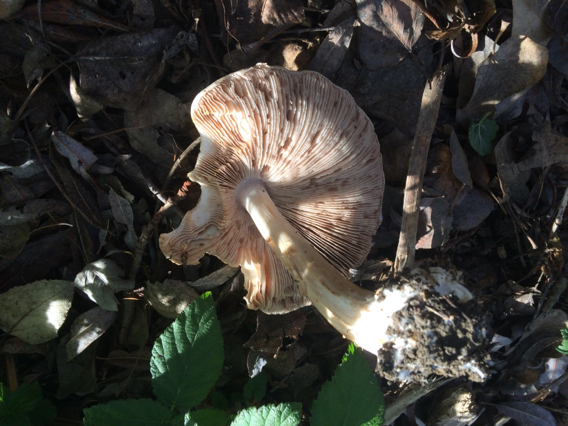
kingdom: Fungi
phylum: Basidiomycota
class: Agaricomycetes
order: Agaricales
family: Pluteaceae
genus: Volvopluteus
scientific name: Volvopluteus gloiocephalus
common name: Stubble rosegill
